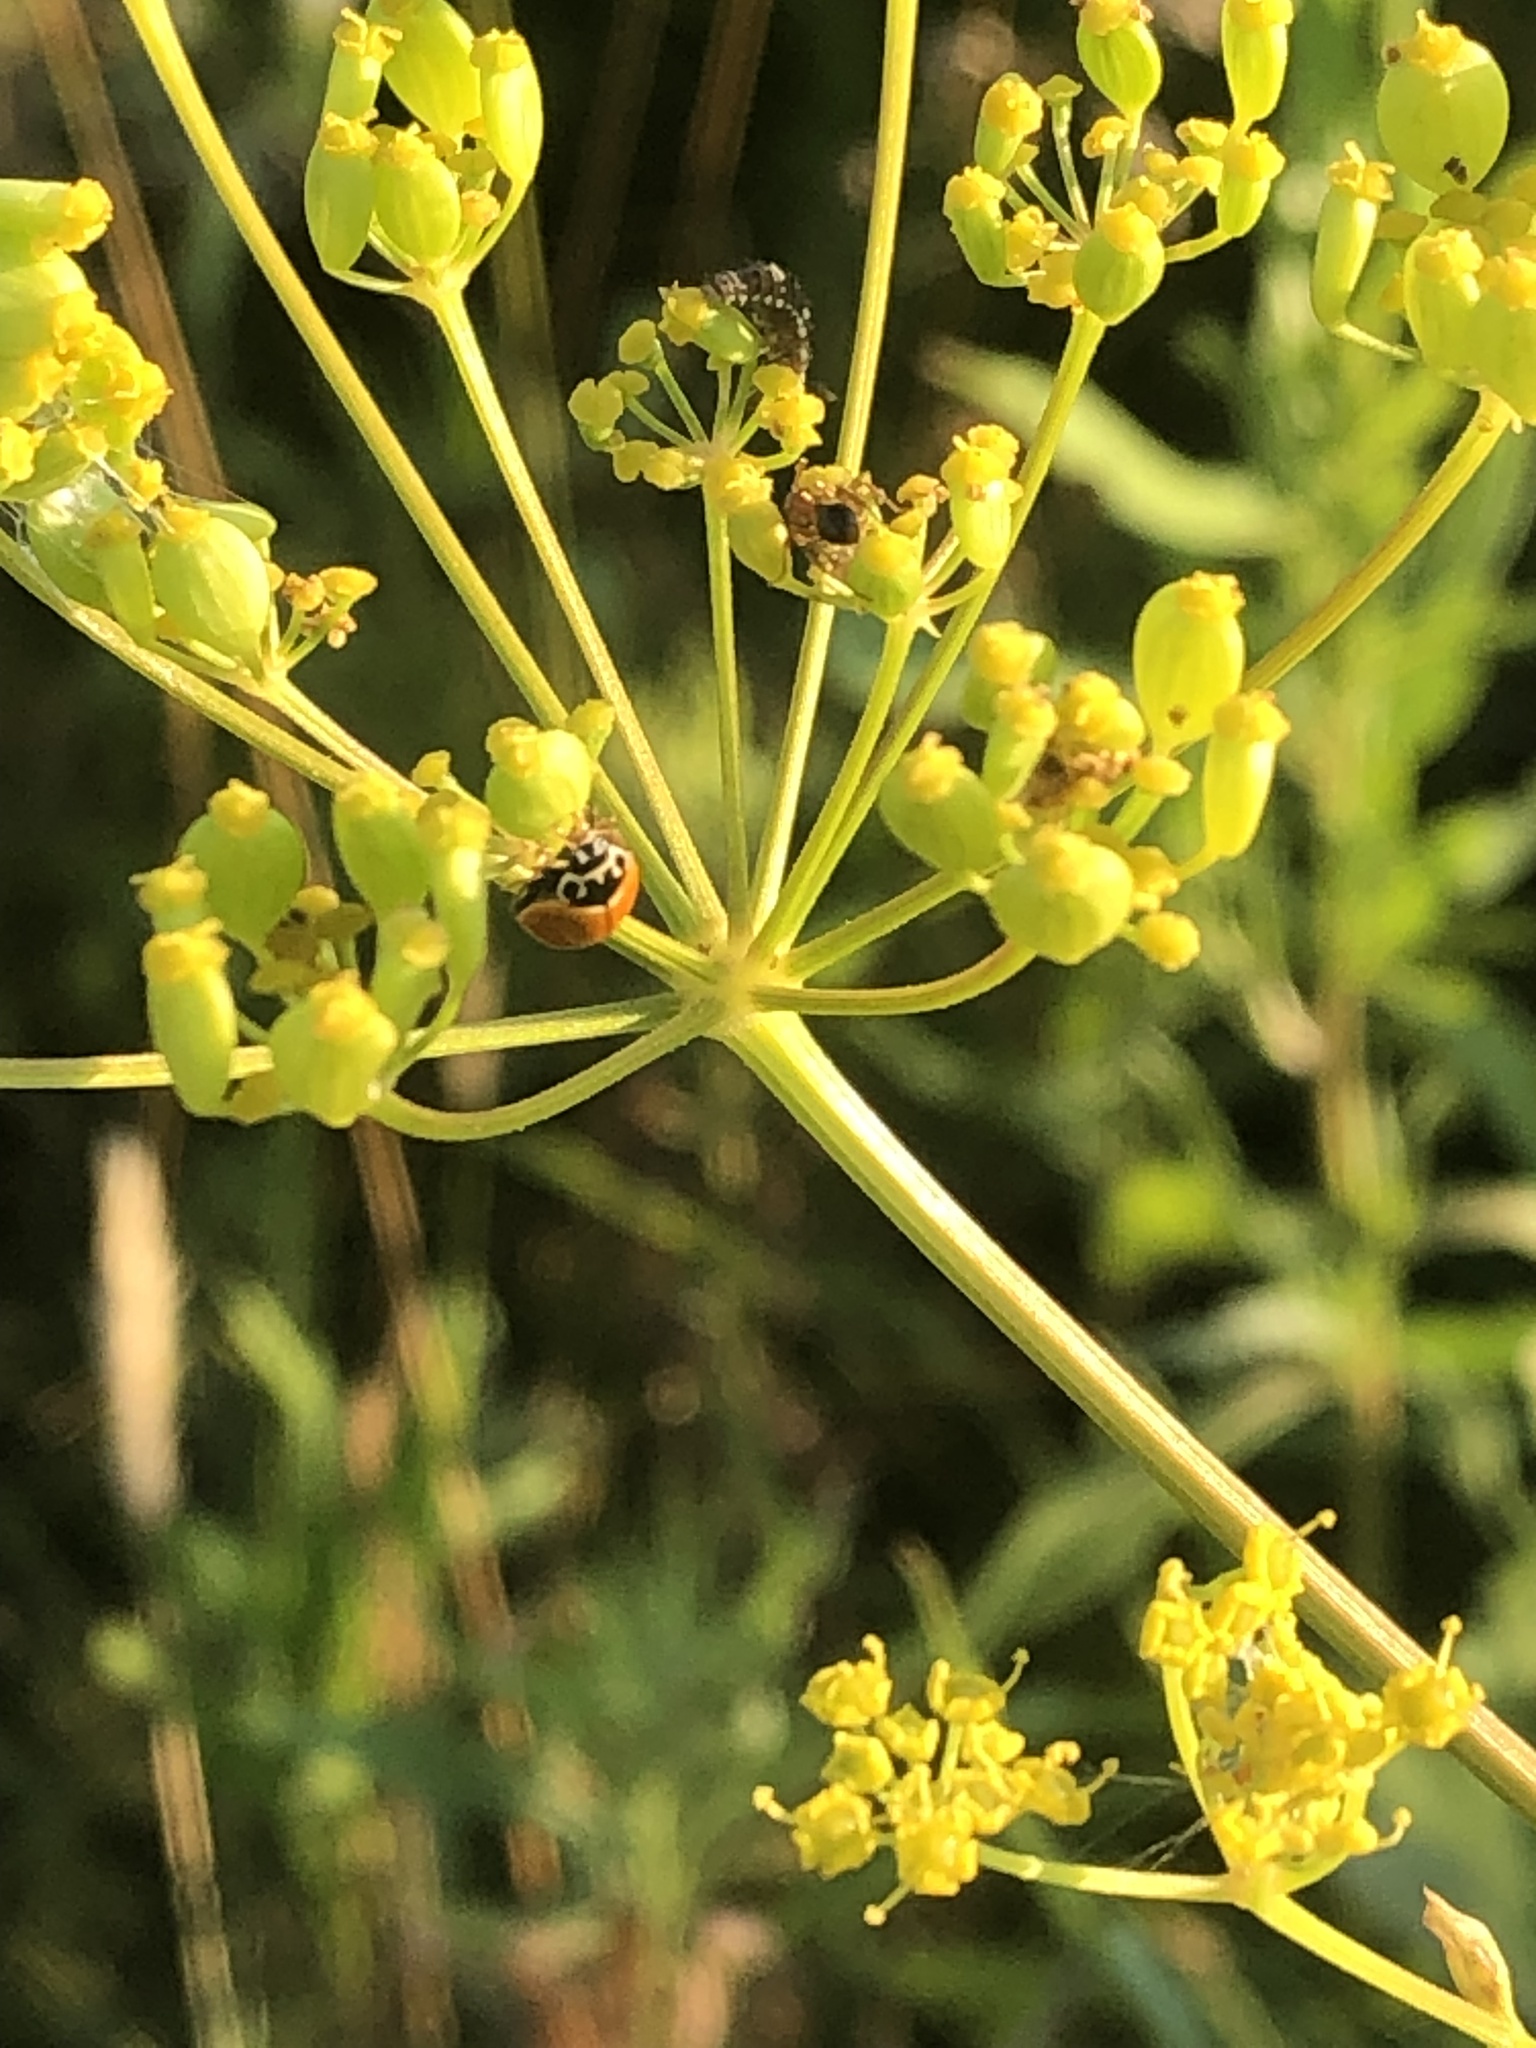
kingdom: Animalia
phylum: Arthropoda
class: Insecta
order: Coleoptera
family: Coccinellidae
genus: Cycloneda
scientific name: Cycloneda munda
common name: Polished lady beetle
